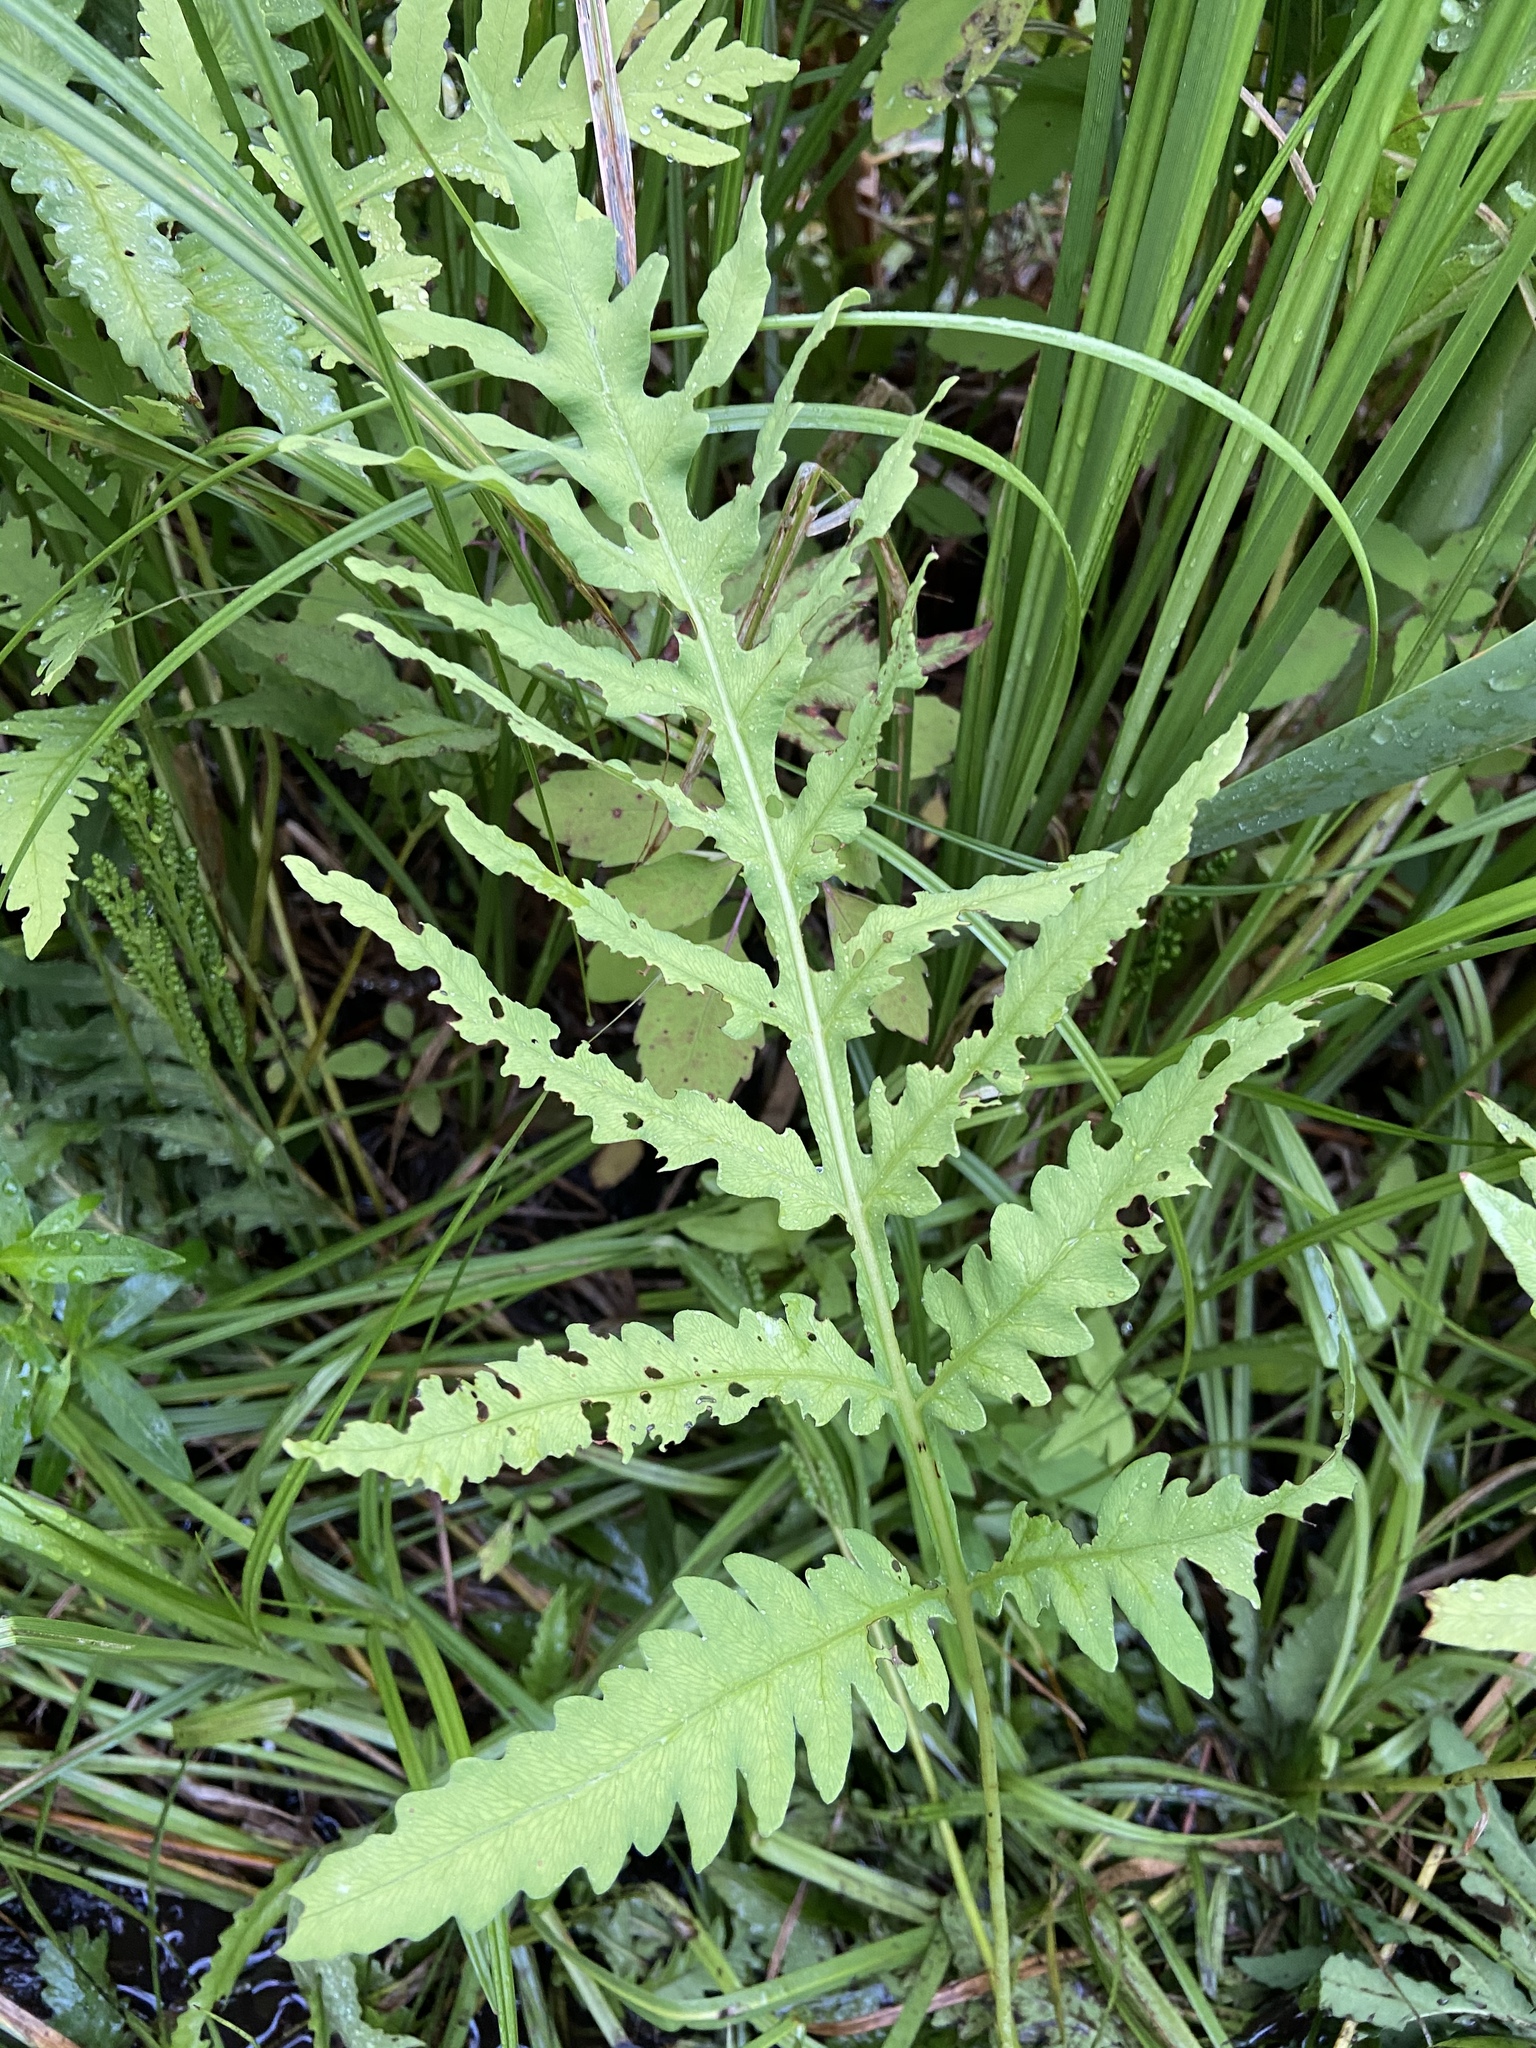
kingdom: Plantae
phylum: Tracheophyta
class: Polypodiopsida
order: Polypodiales
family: Onocleaceae
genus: Onoclea
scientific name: Onoclea sensibilis
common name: Sensitive fern
